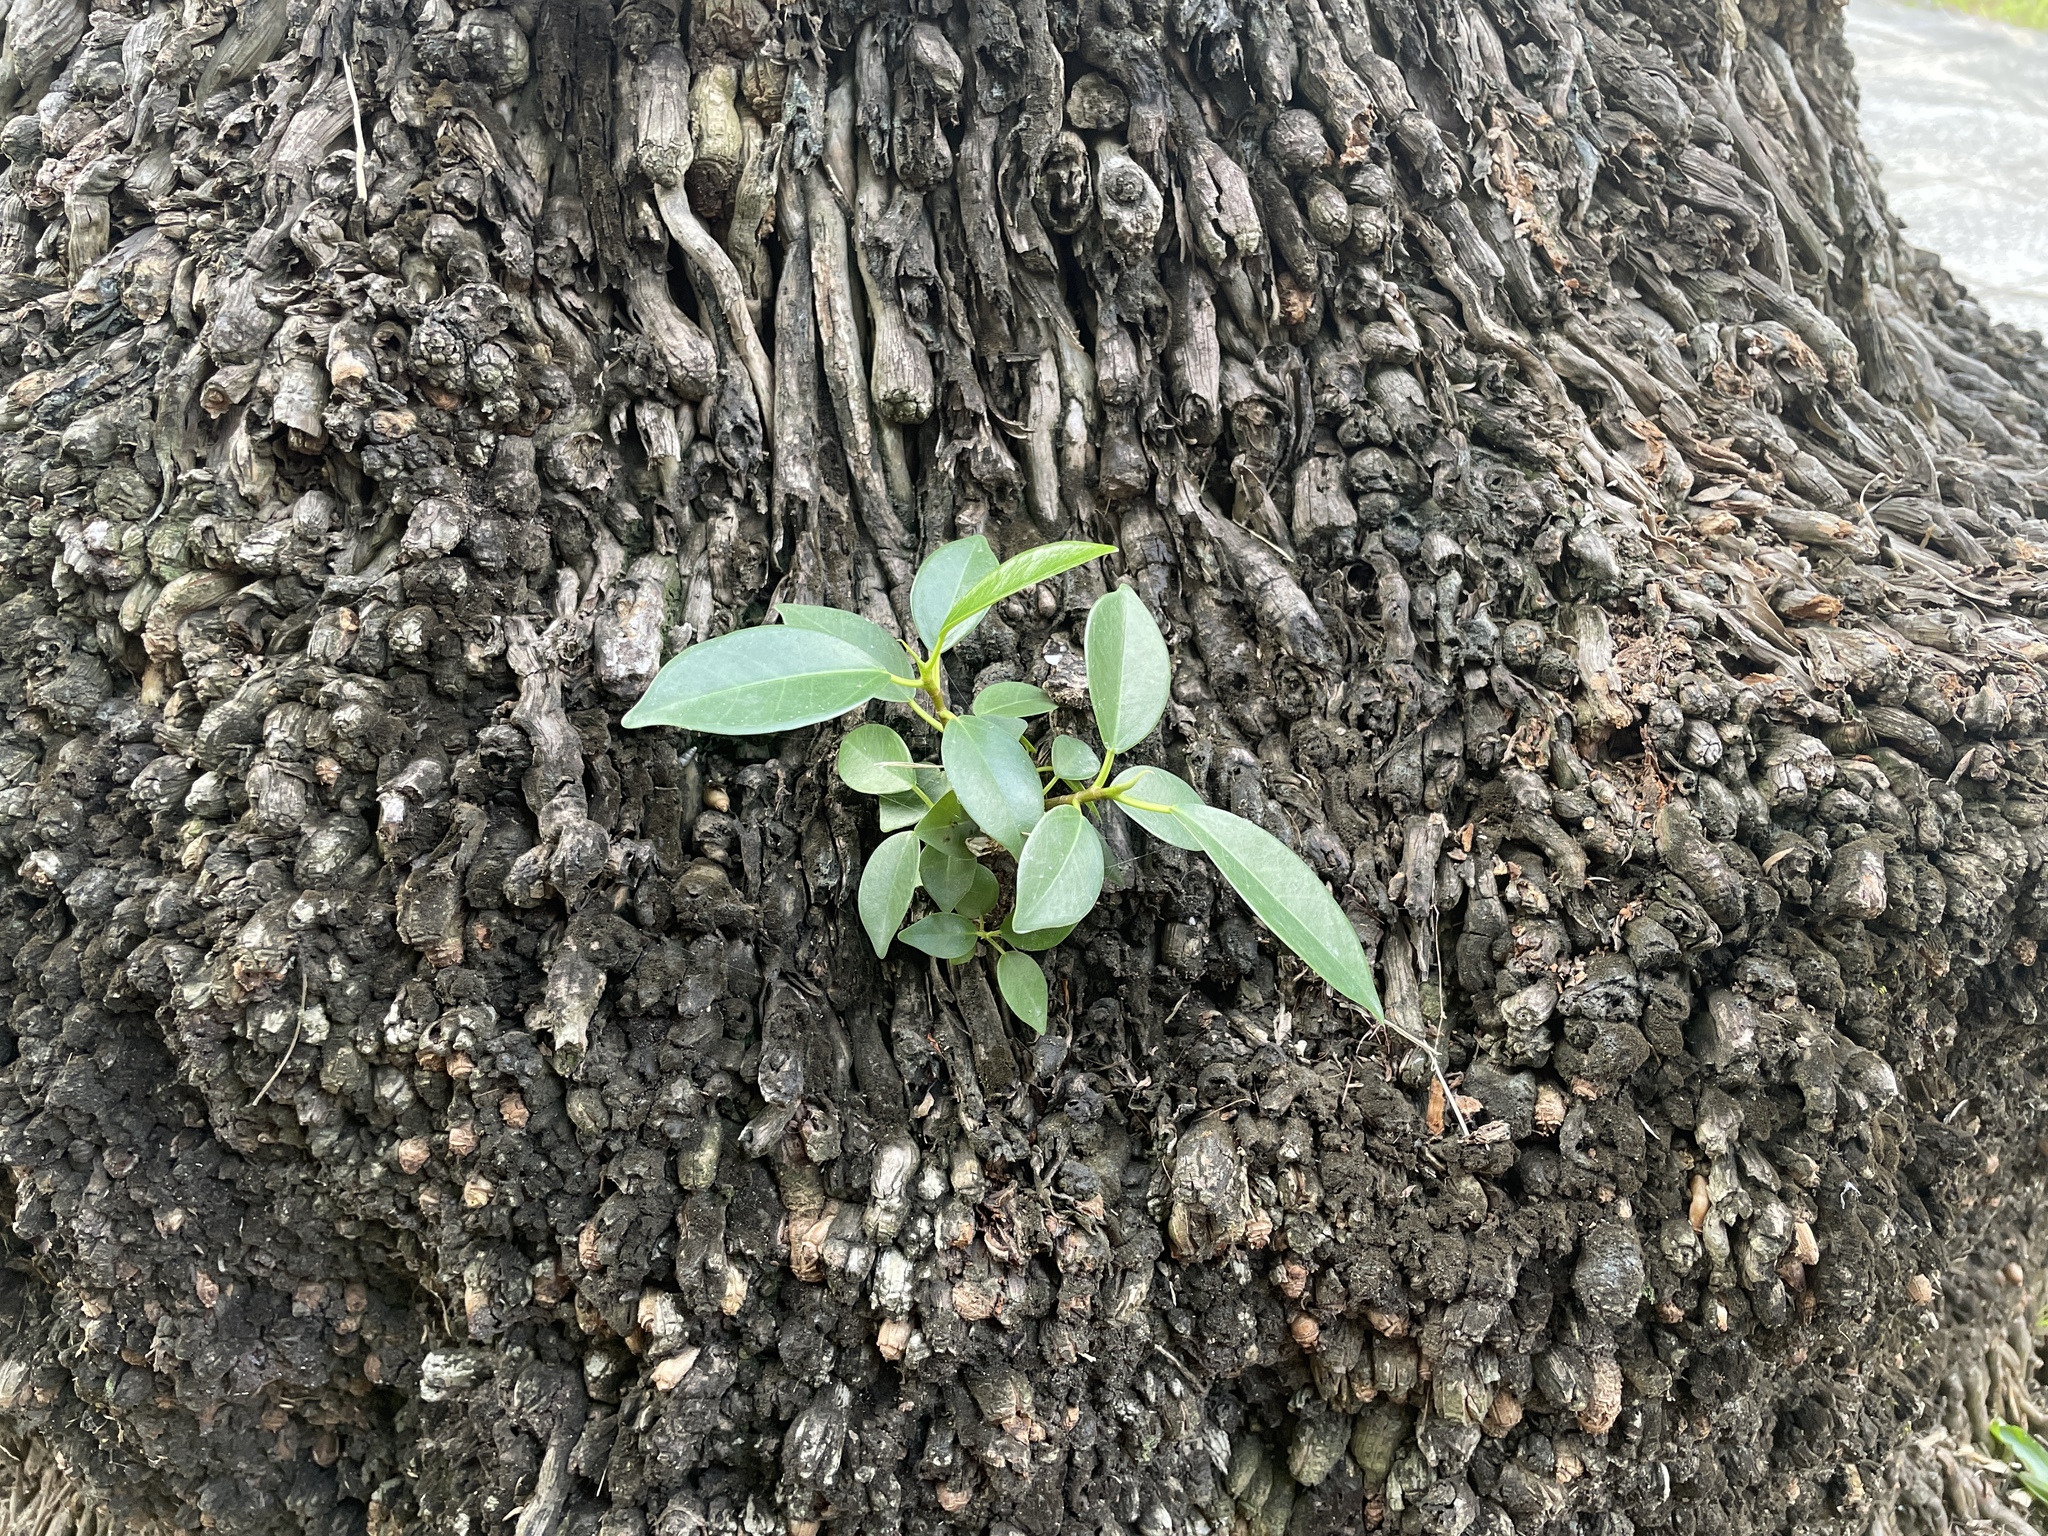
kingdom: Plantae
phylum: Tracheophyta
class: Magnoliopsida
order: Rosales
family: Moraceae
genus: Ficus
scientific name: Ficus microcarpa
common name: Chinese banyan
